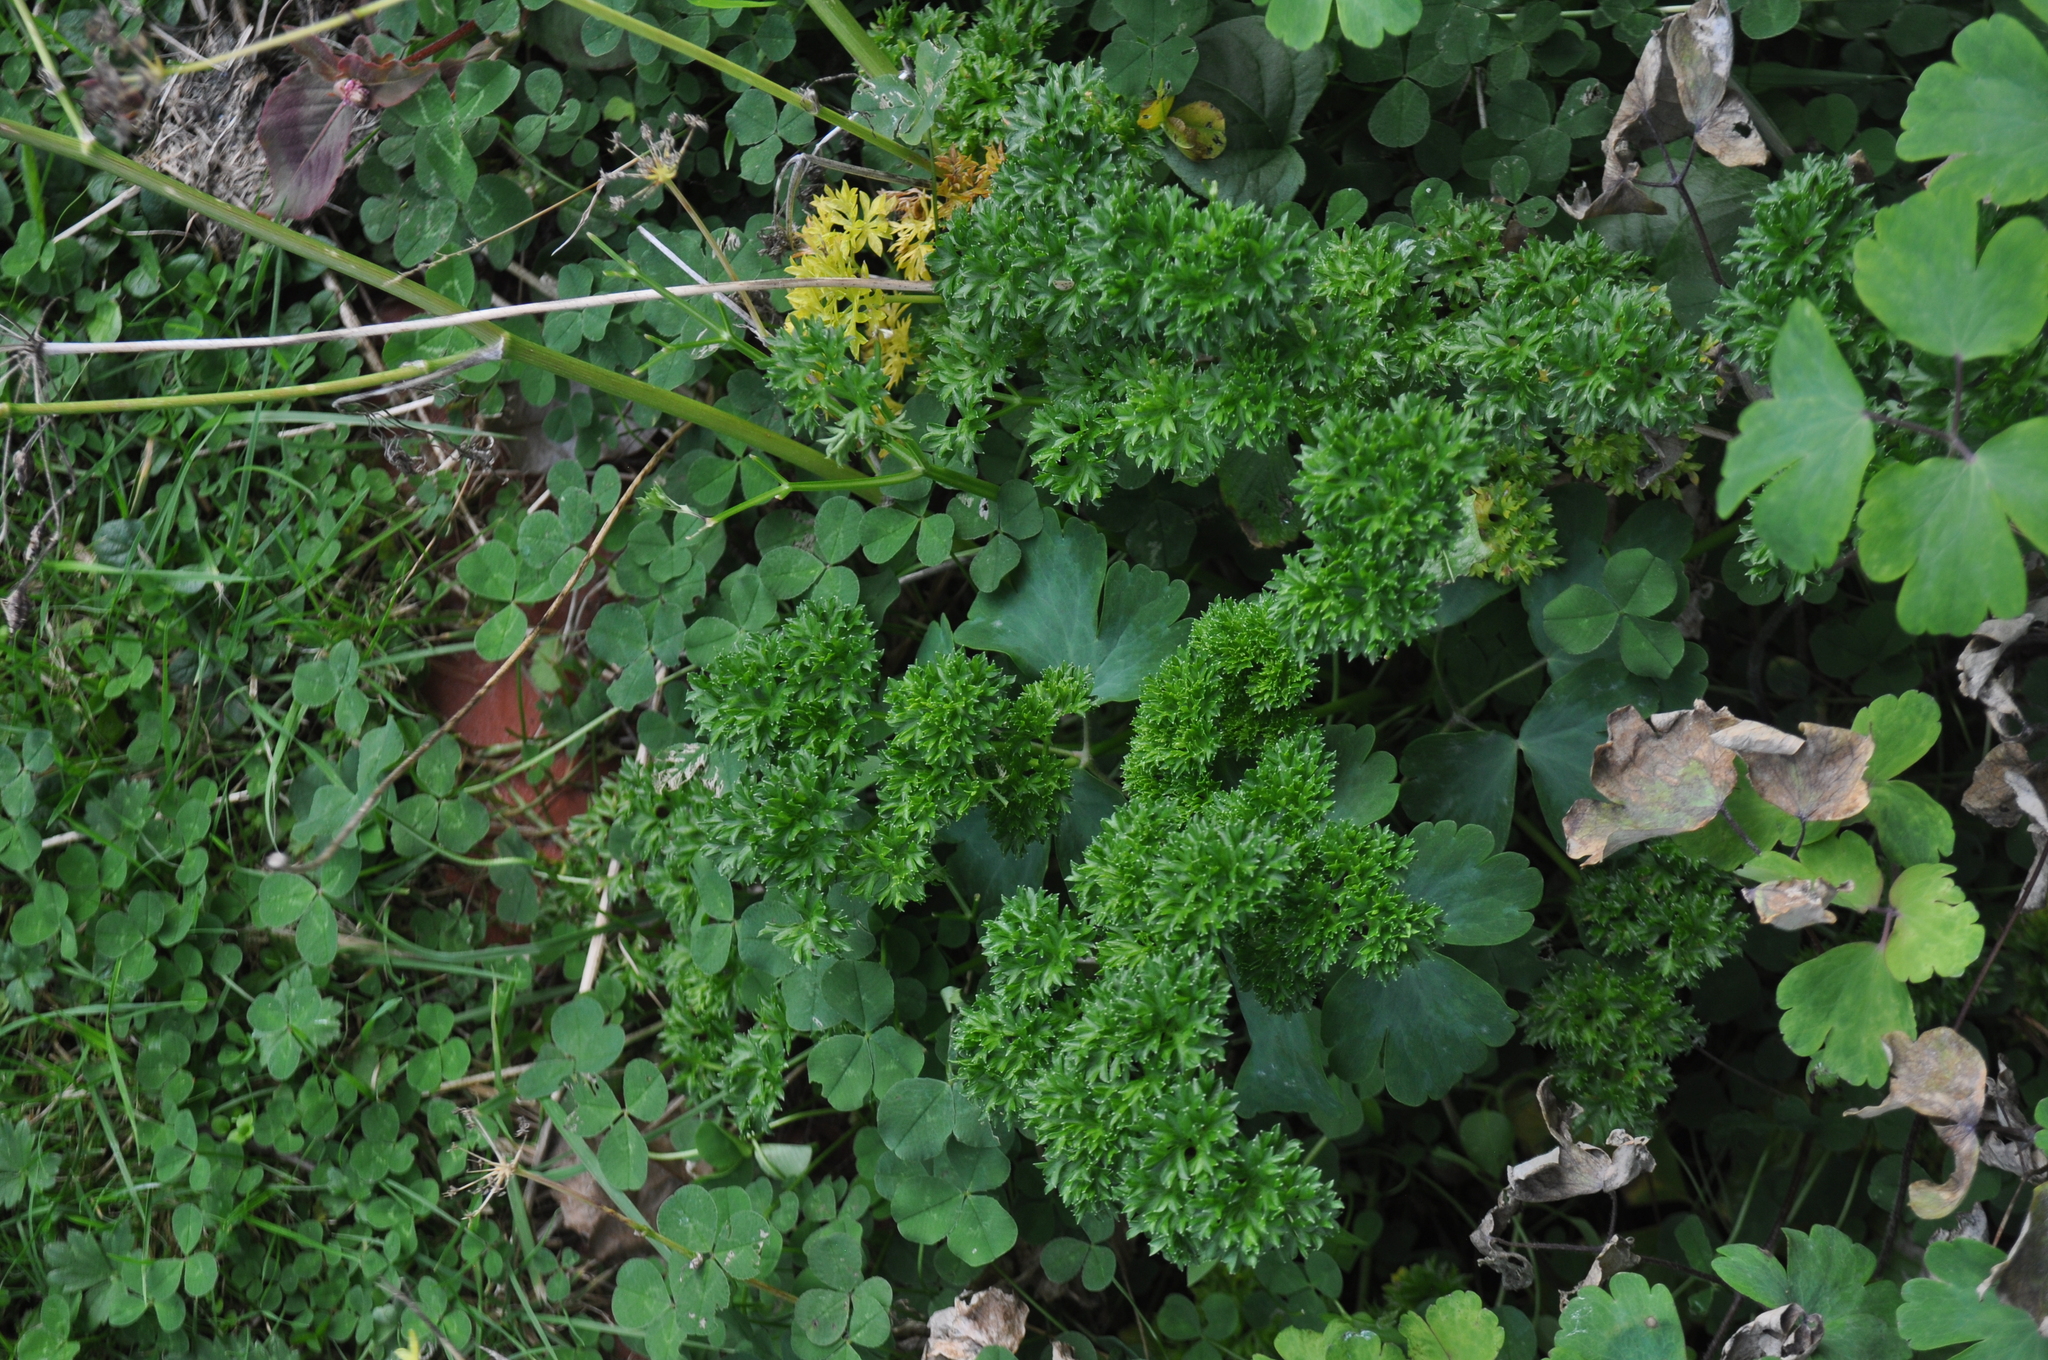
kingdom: Plantae
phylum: Tracheophyta
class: Magnoliopsida
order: Apiales
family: Apiaceae
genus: Petroselinum
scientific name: Petroselinum crispum
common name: Parsley
